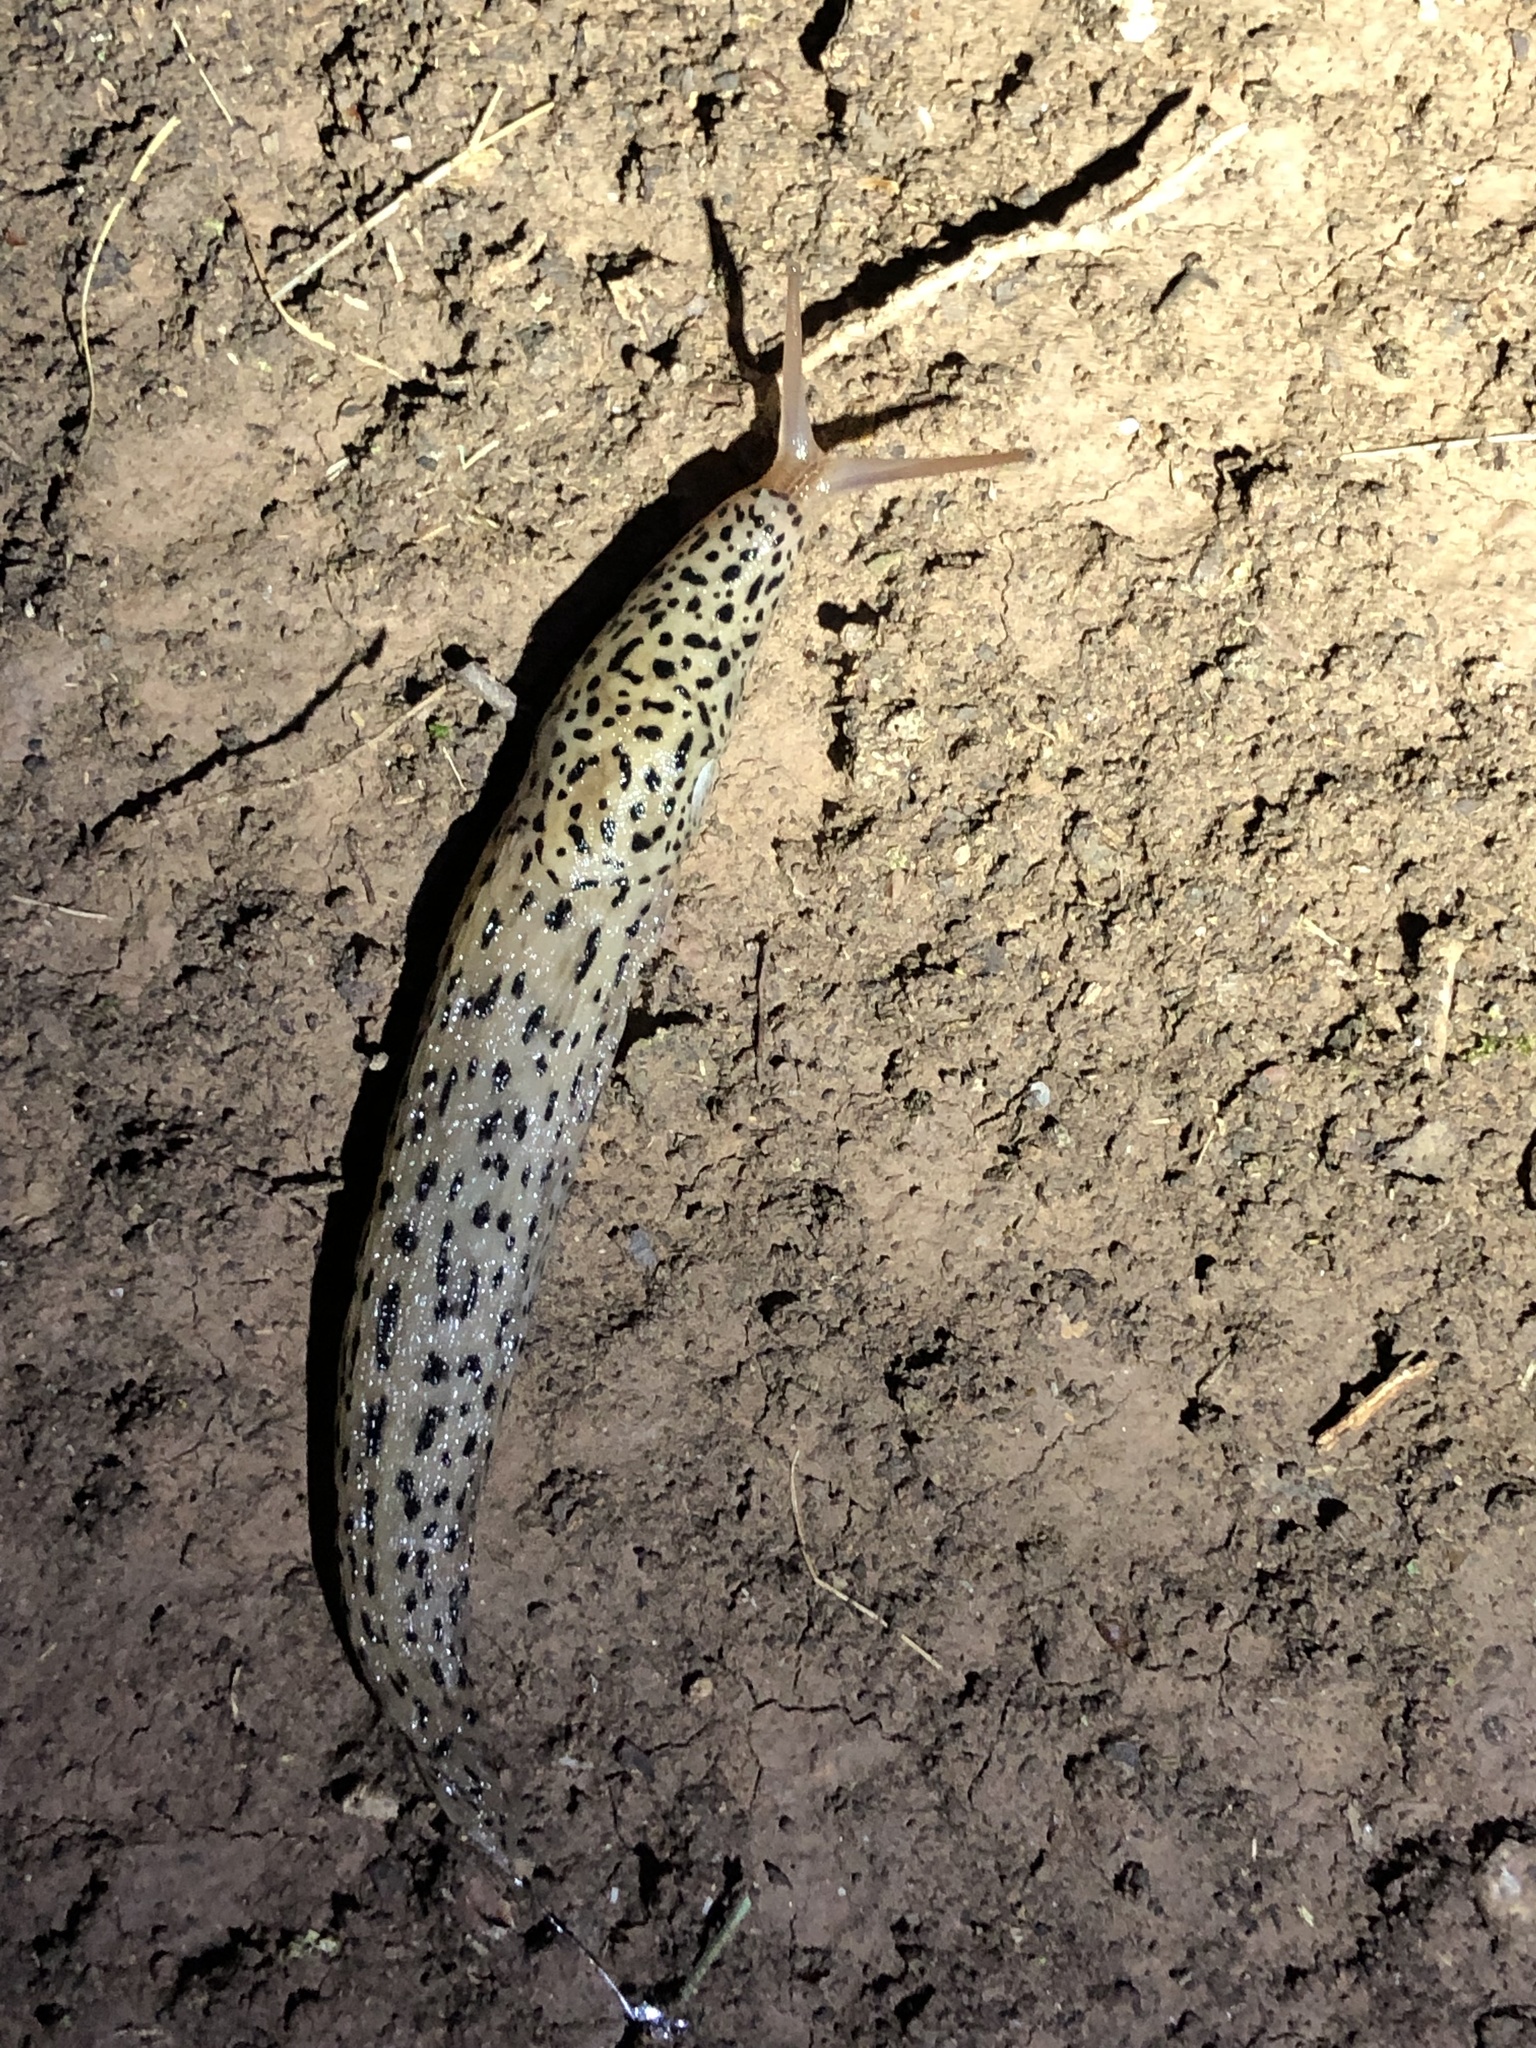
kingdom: Animalia
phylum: Mollusca
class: Gastropoda
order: Stylommatophora
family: Limacidae
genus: Limax
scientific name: Limax maximus
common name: Great grey slug
